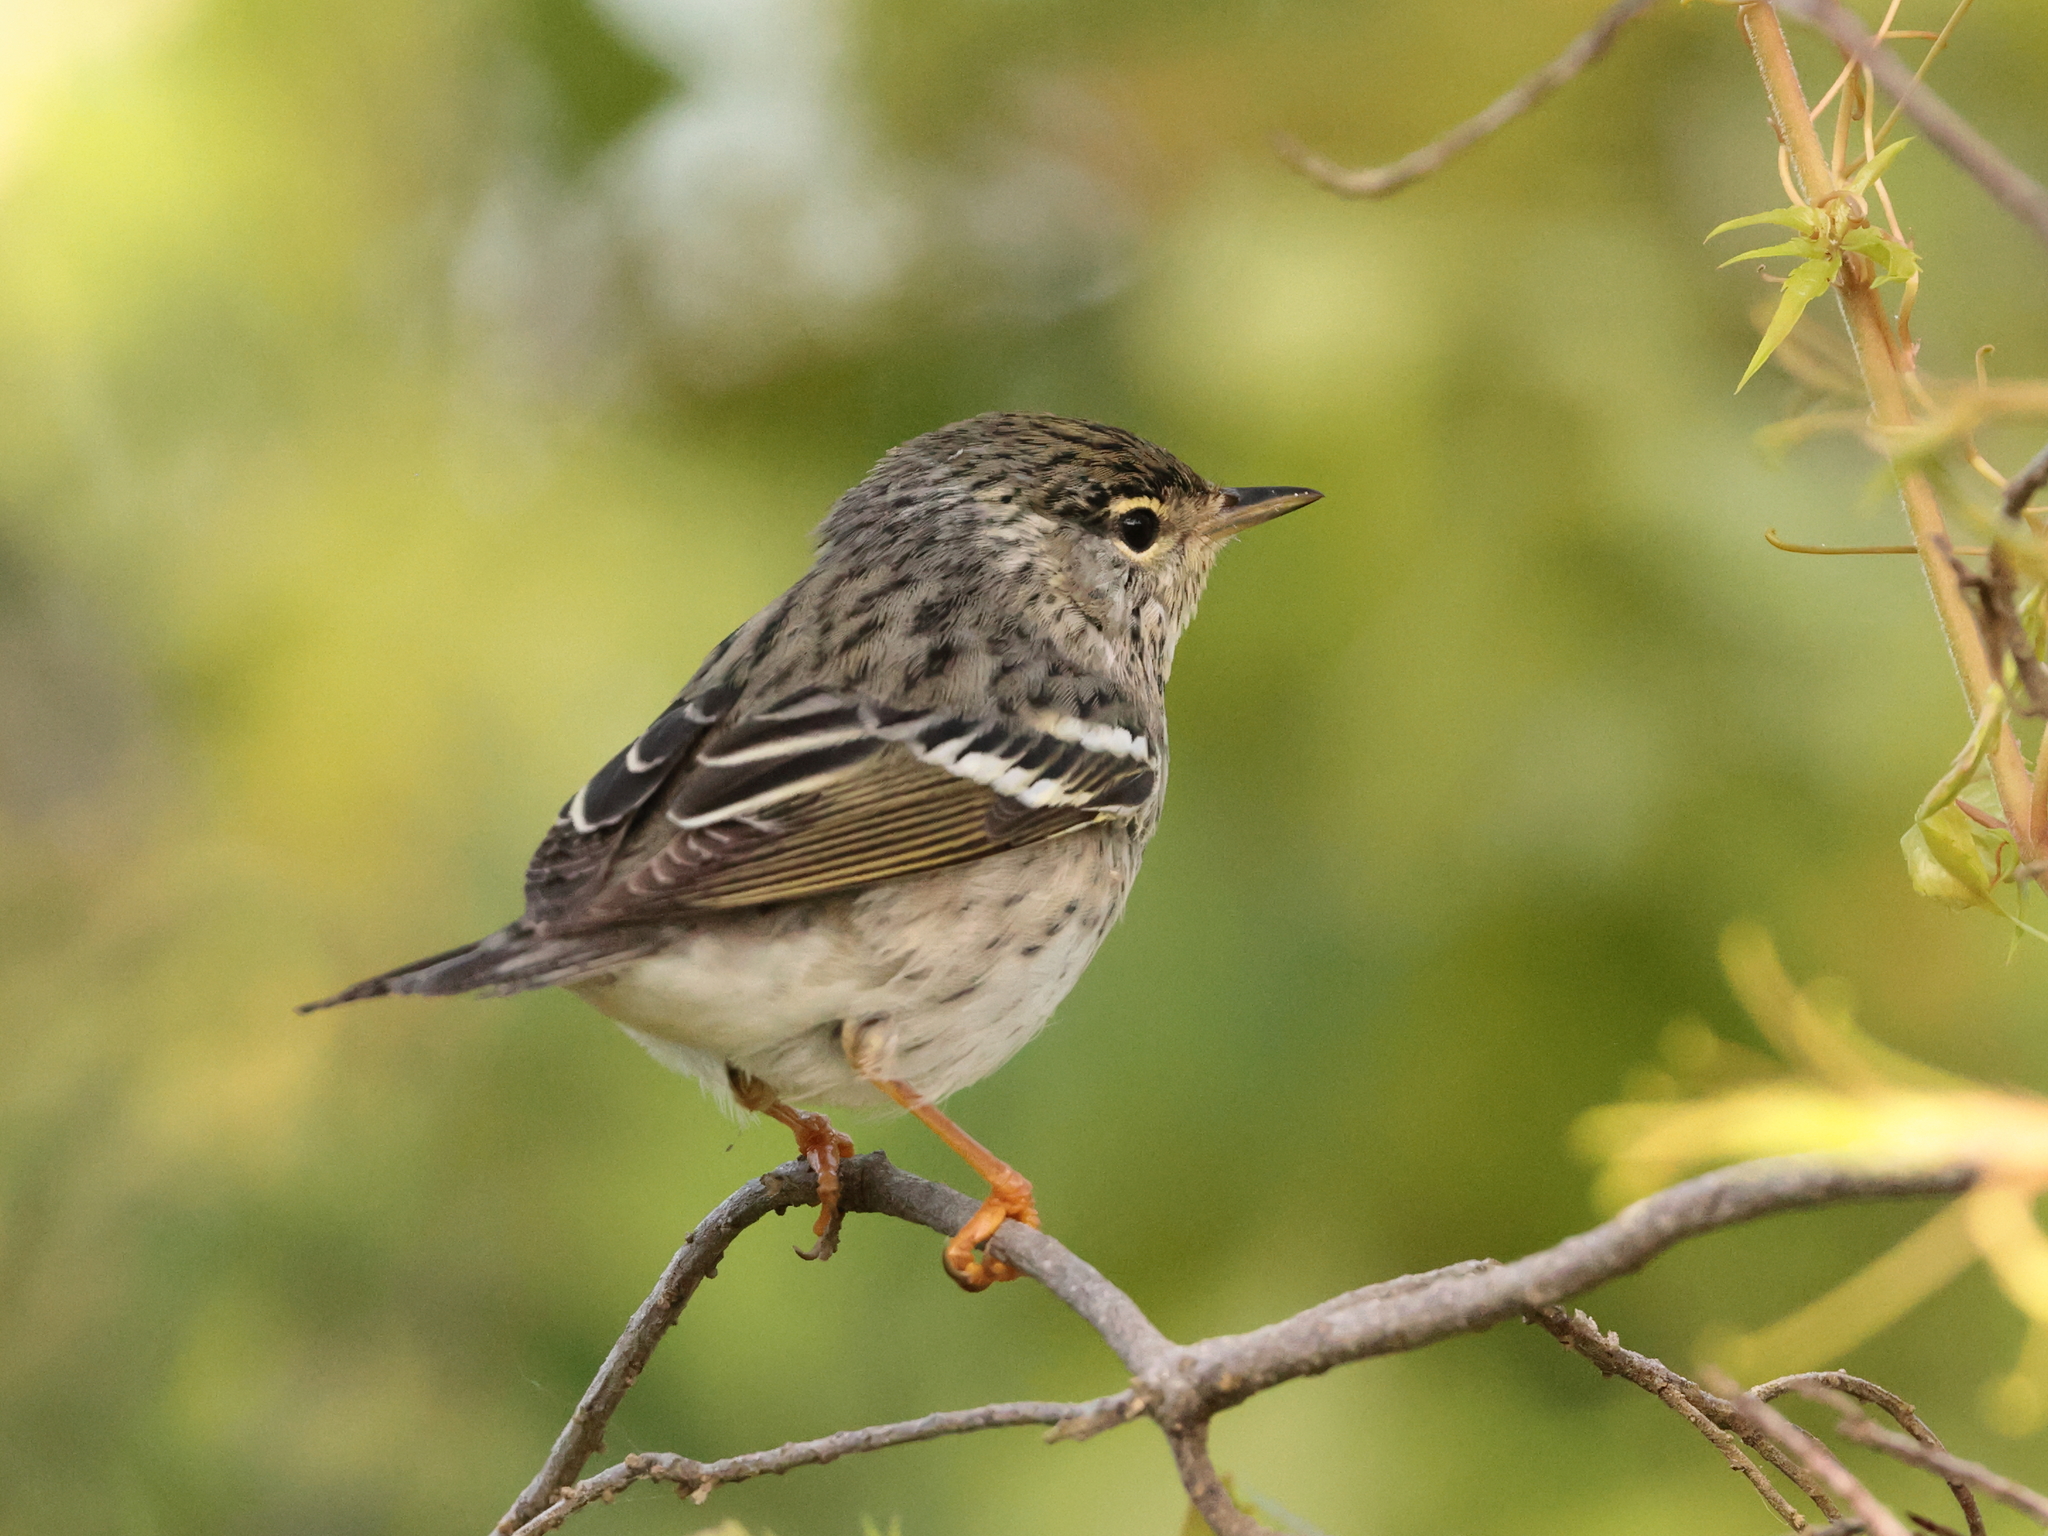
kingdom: Animalia
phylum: Chordata
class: Aves
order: Passeriformes
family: Parulidae
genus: Setophaga
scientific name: Setophaga striata
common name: Blackpoll warbler
